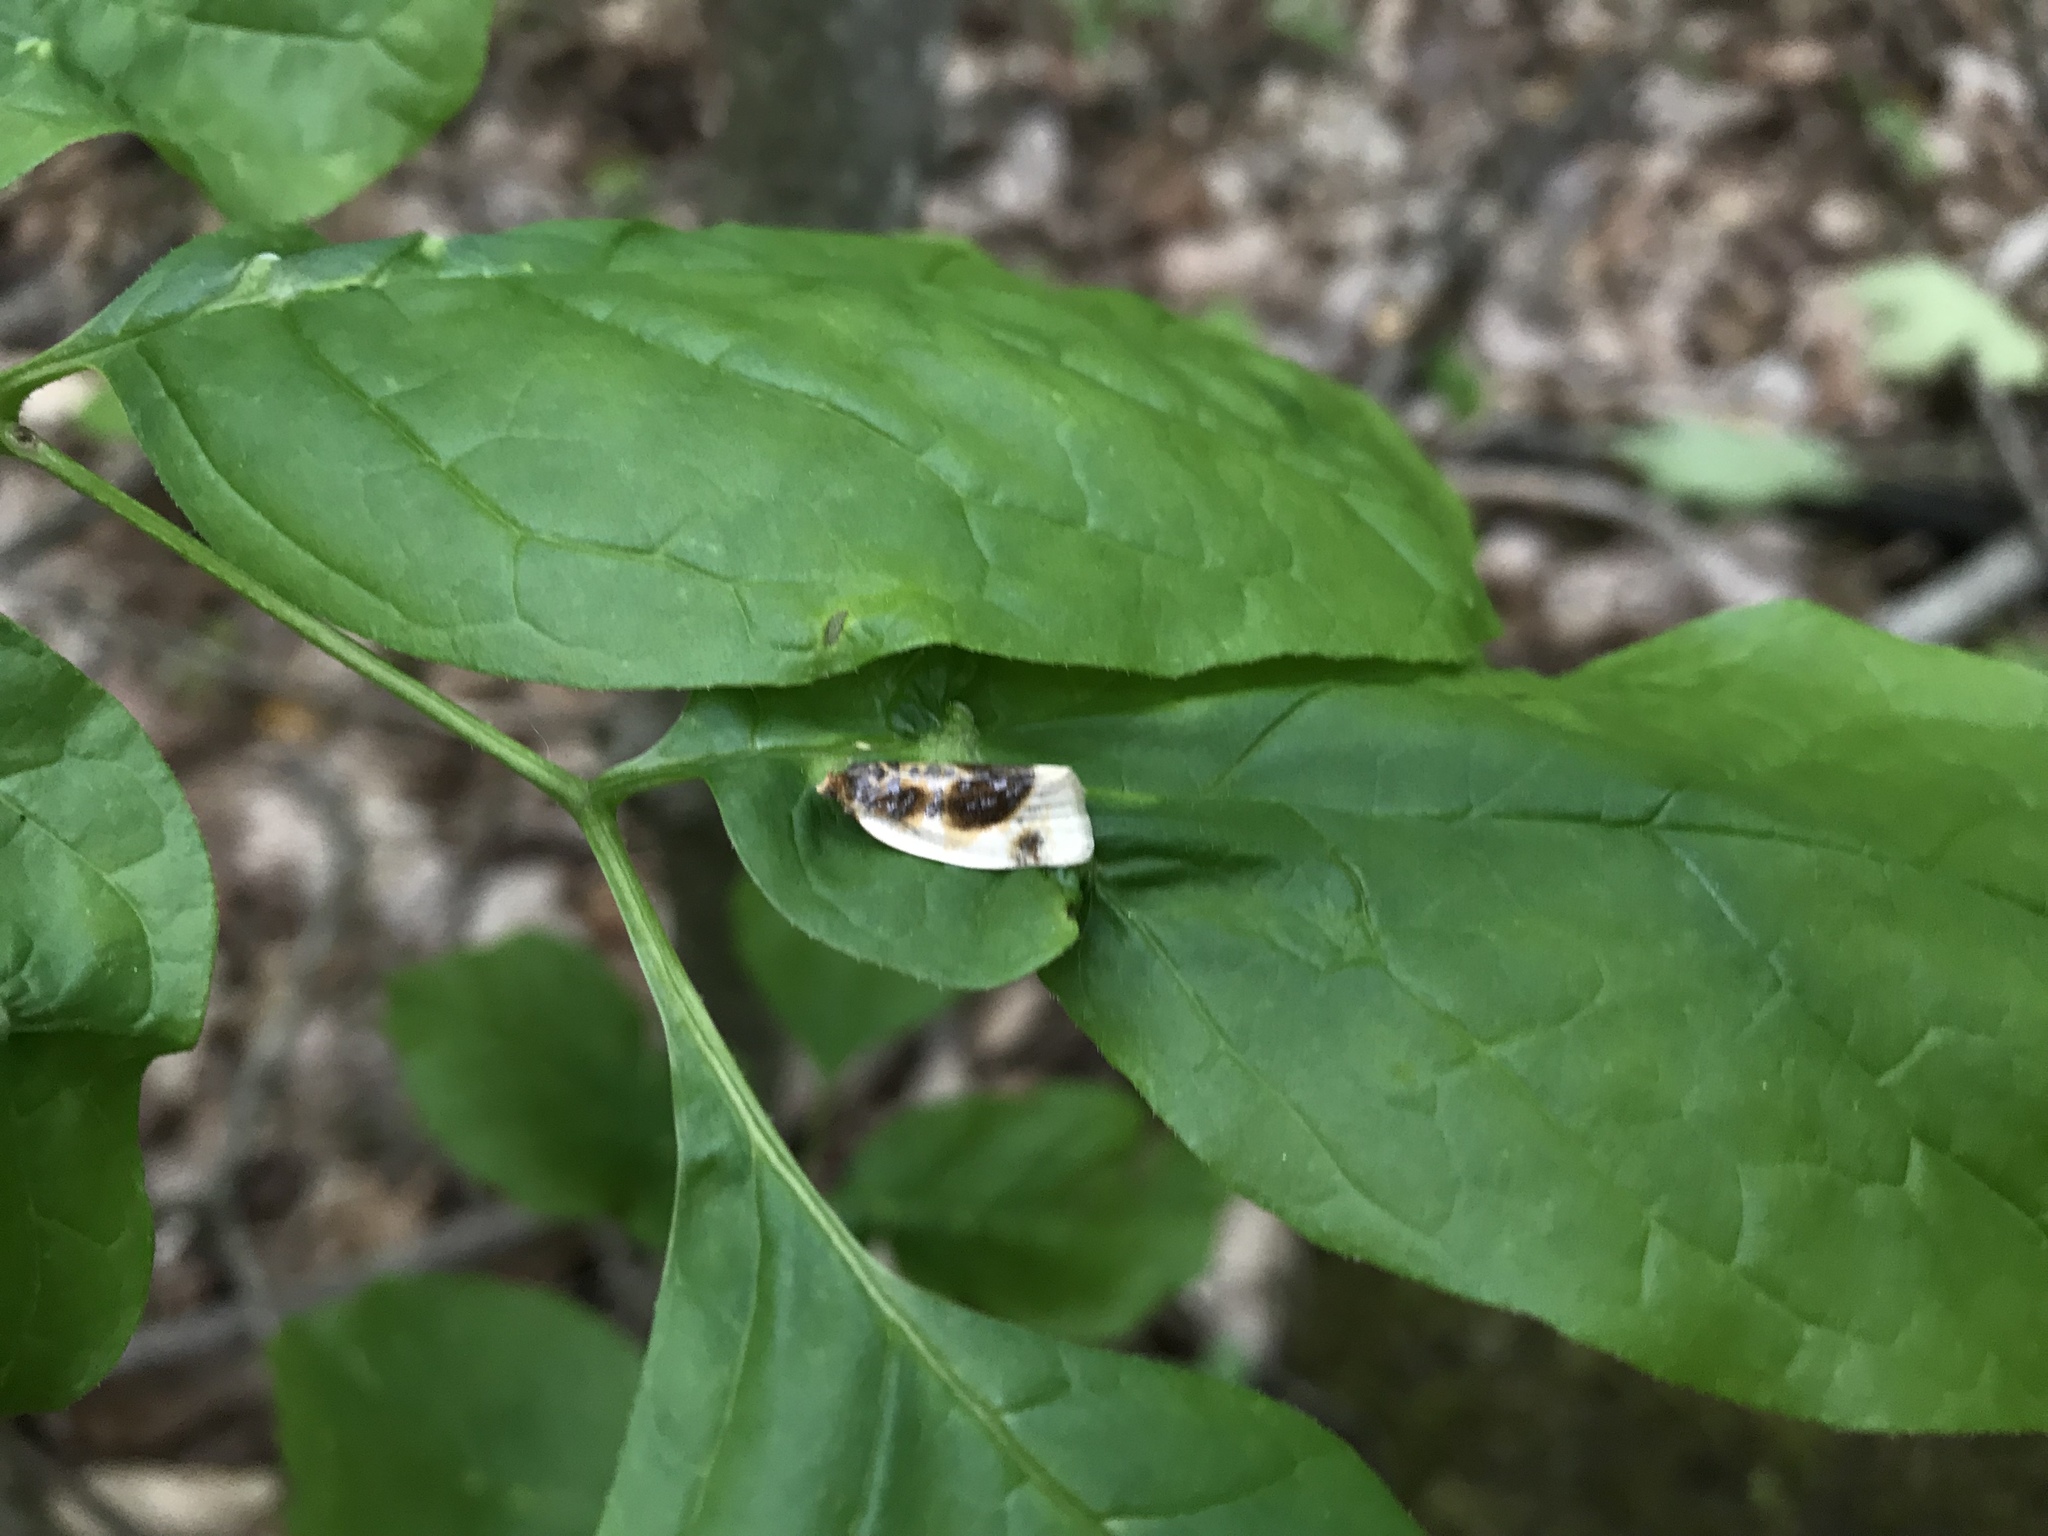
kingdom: Animalia
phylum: Arthropoda
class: Insecta
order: Lepidoptera
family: Tortricidae
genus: Clepsis
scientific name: Clepsis melaleucanus
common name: American apple tortrix
